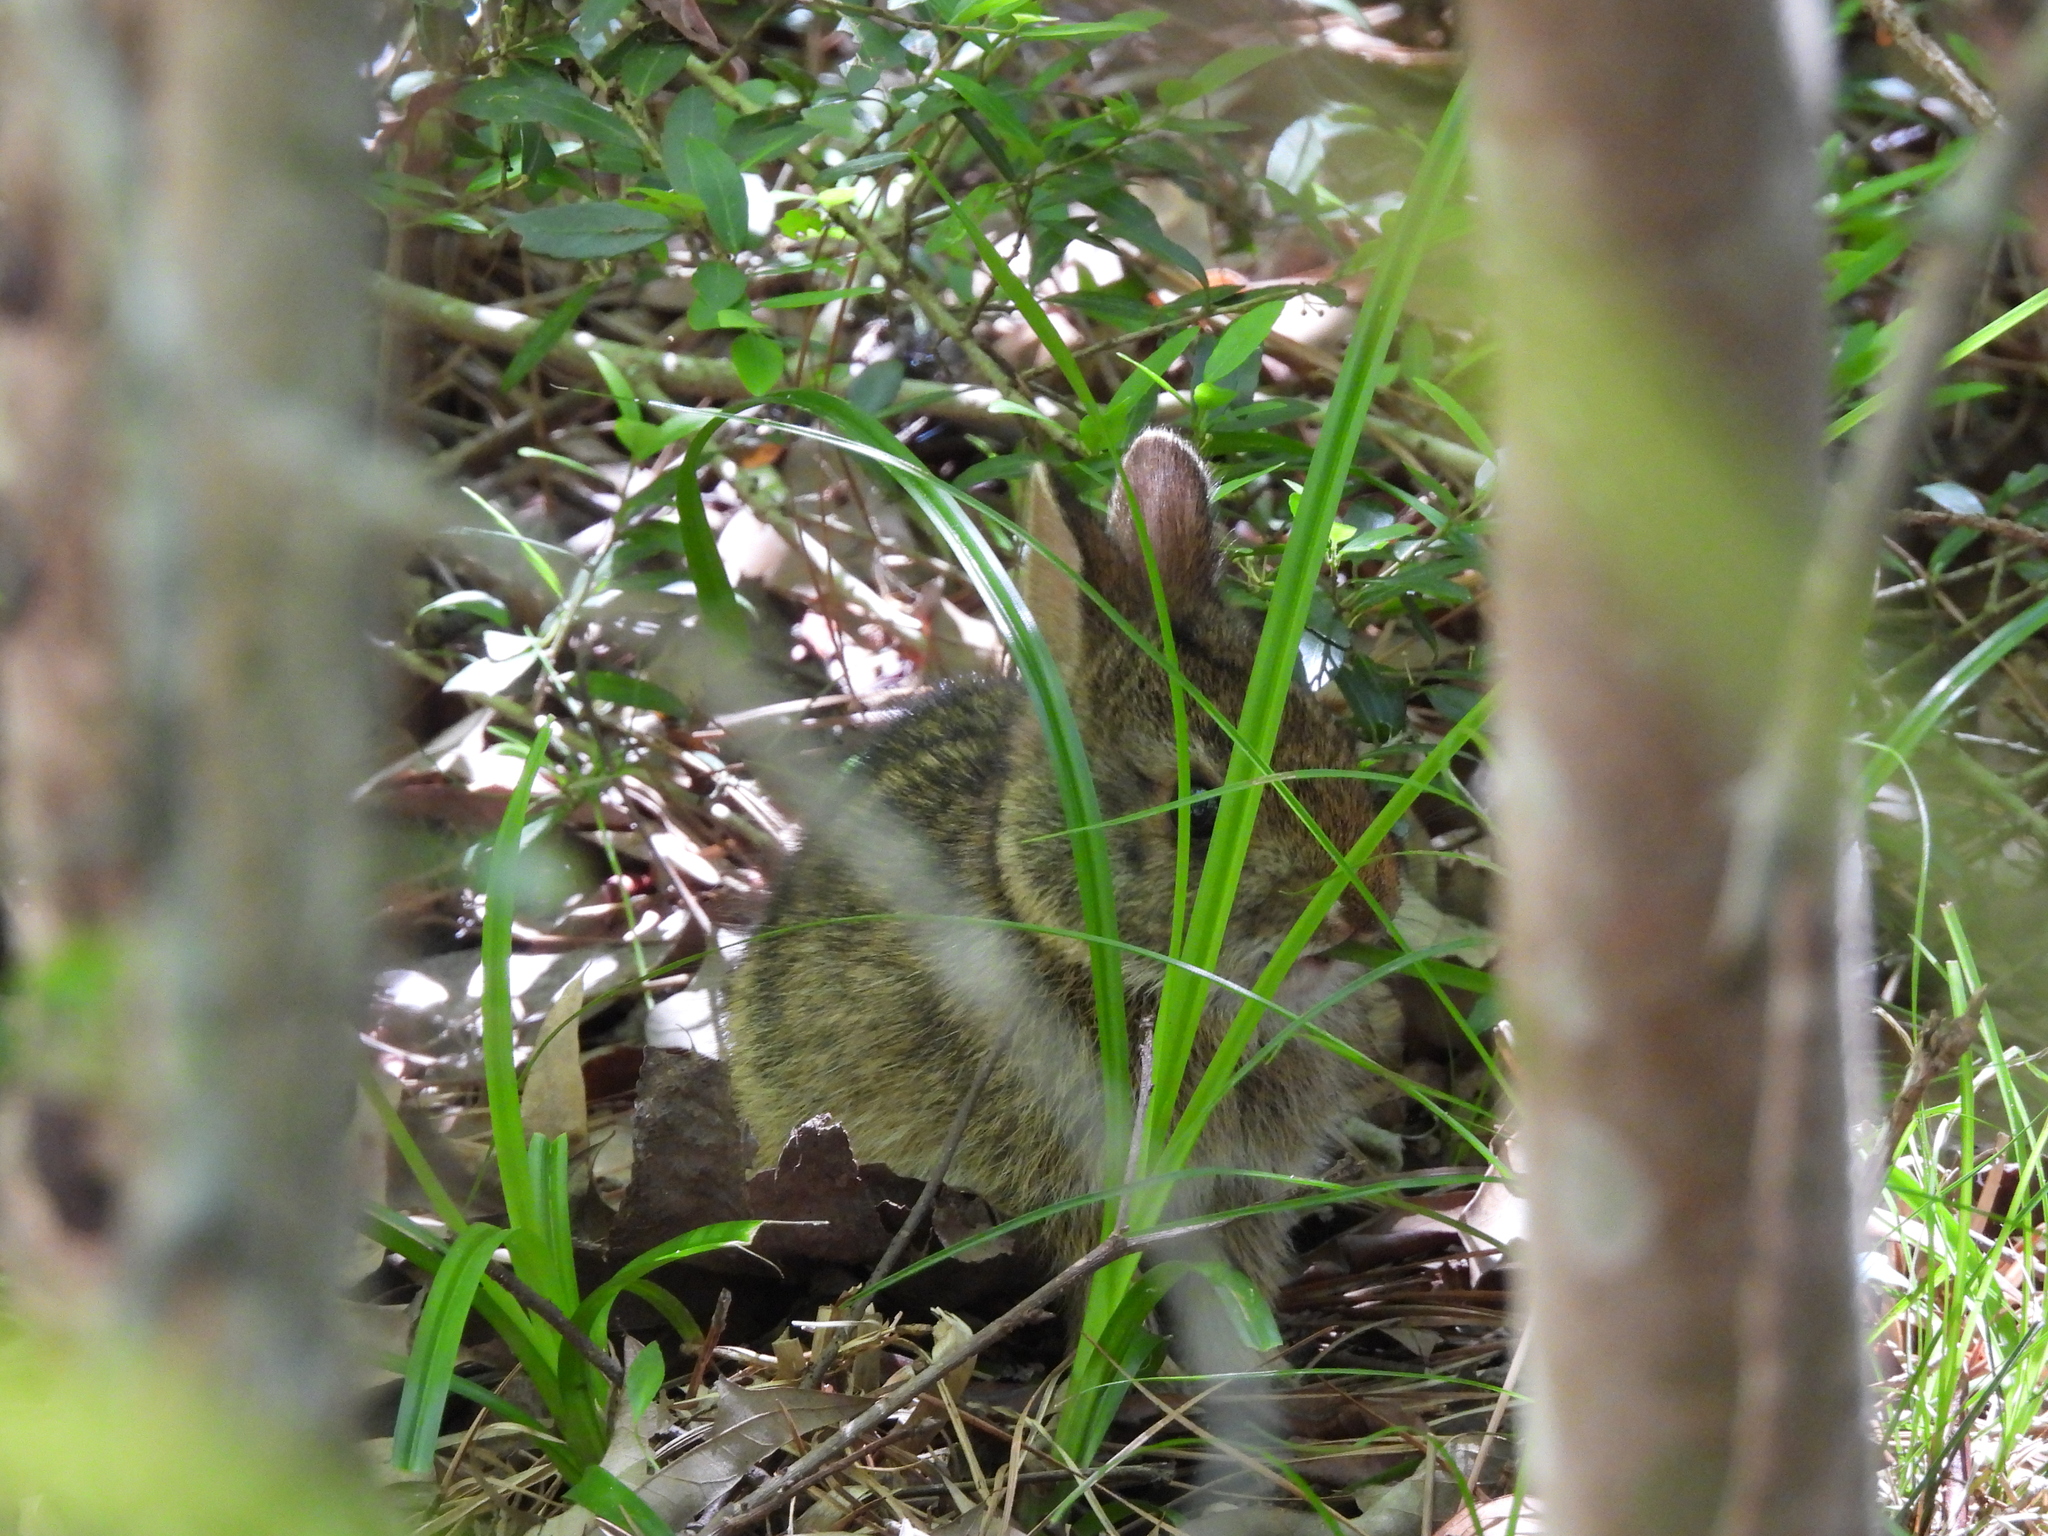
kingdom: Animalia
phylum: Chordata
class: Mammalia
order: Lagomorpha
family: Leporidae
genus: Sylvilagus
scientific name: Sylvilagus aquaticus
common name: Swamp rabbit
